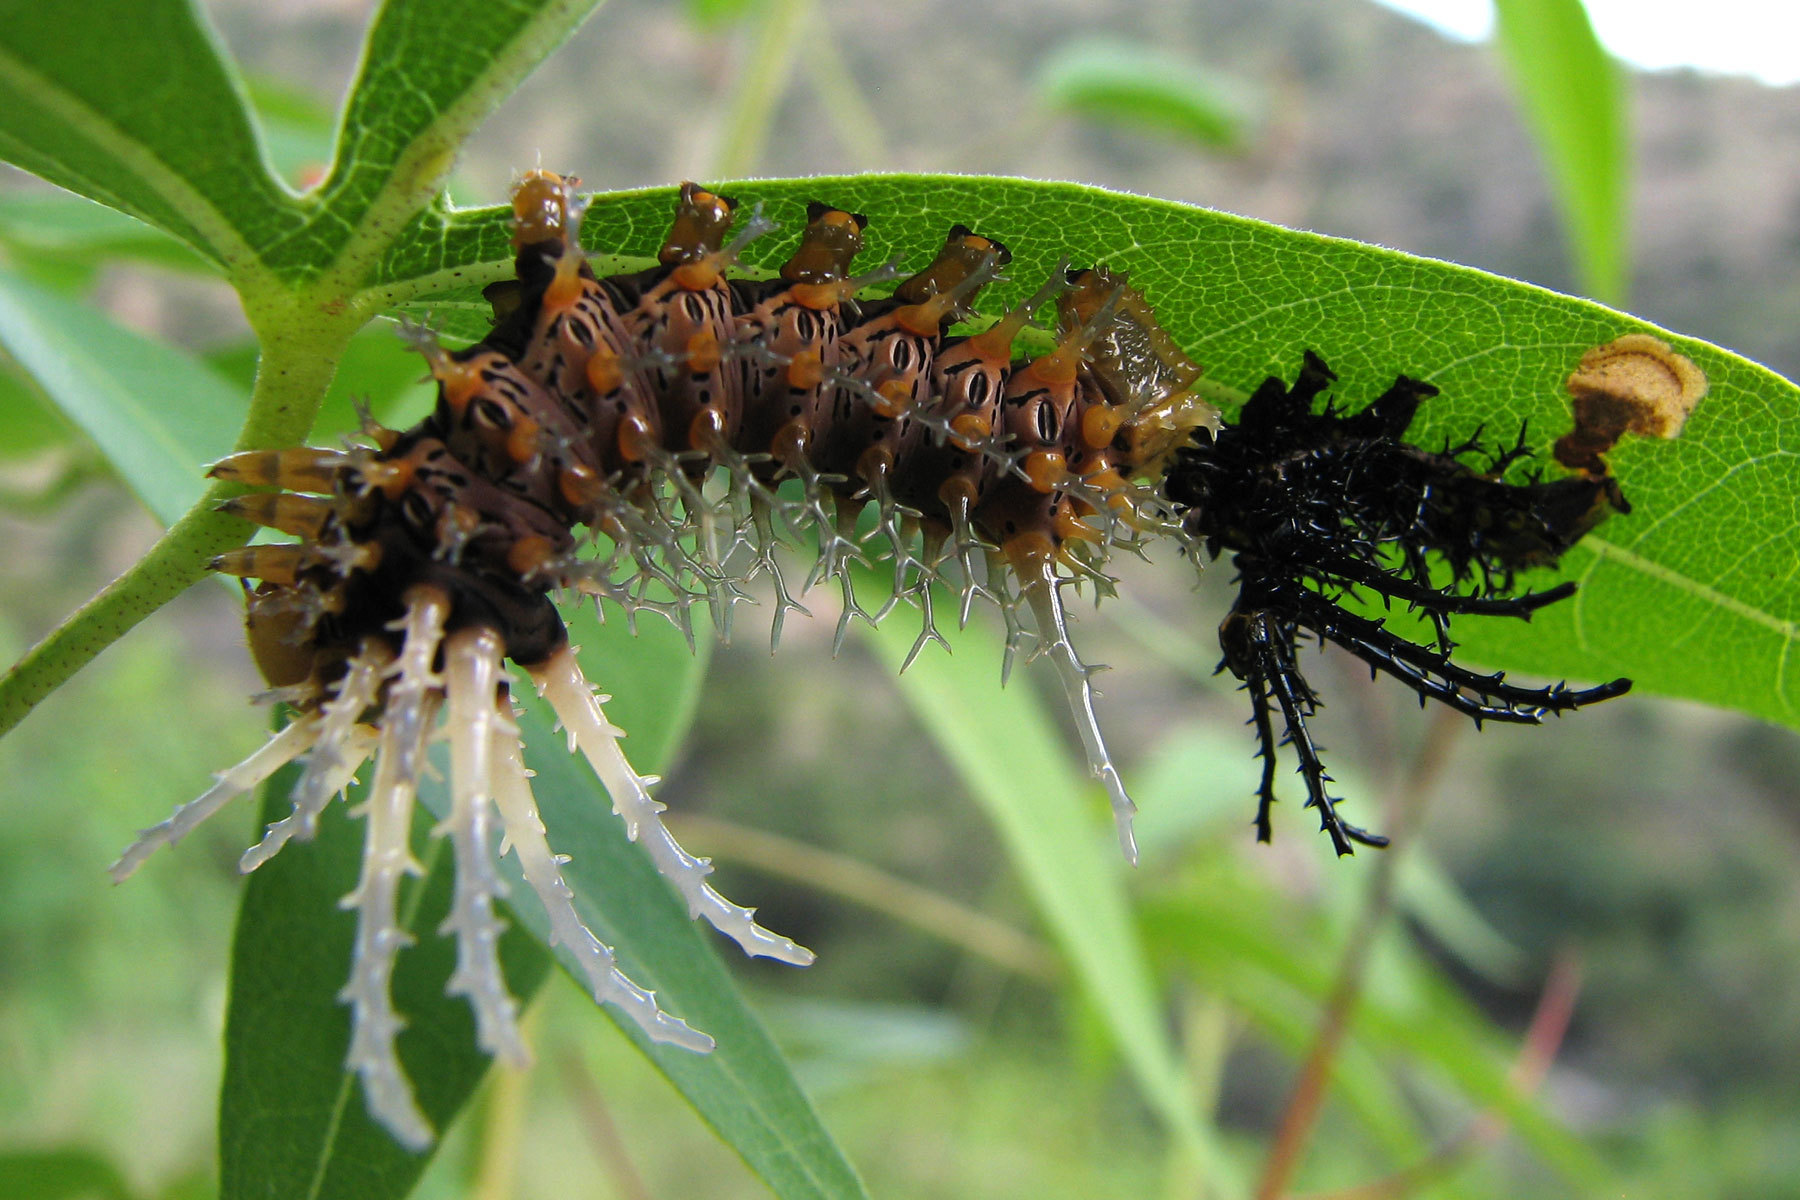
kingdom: Animalia
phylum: Arthropoda
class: Insecta
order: Lepidoptera
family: Saturniidae
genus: Citheronia
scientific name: Citheronia splendens
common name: Splendid royal moth
